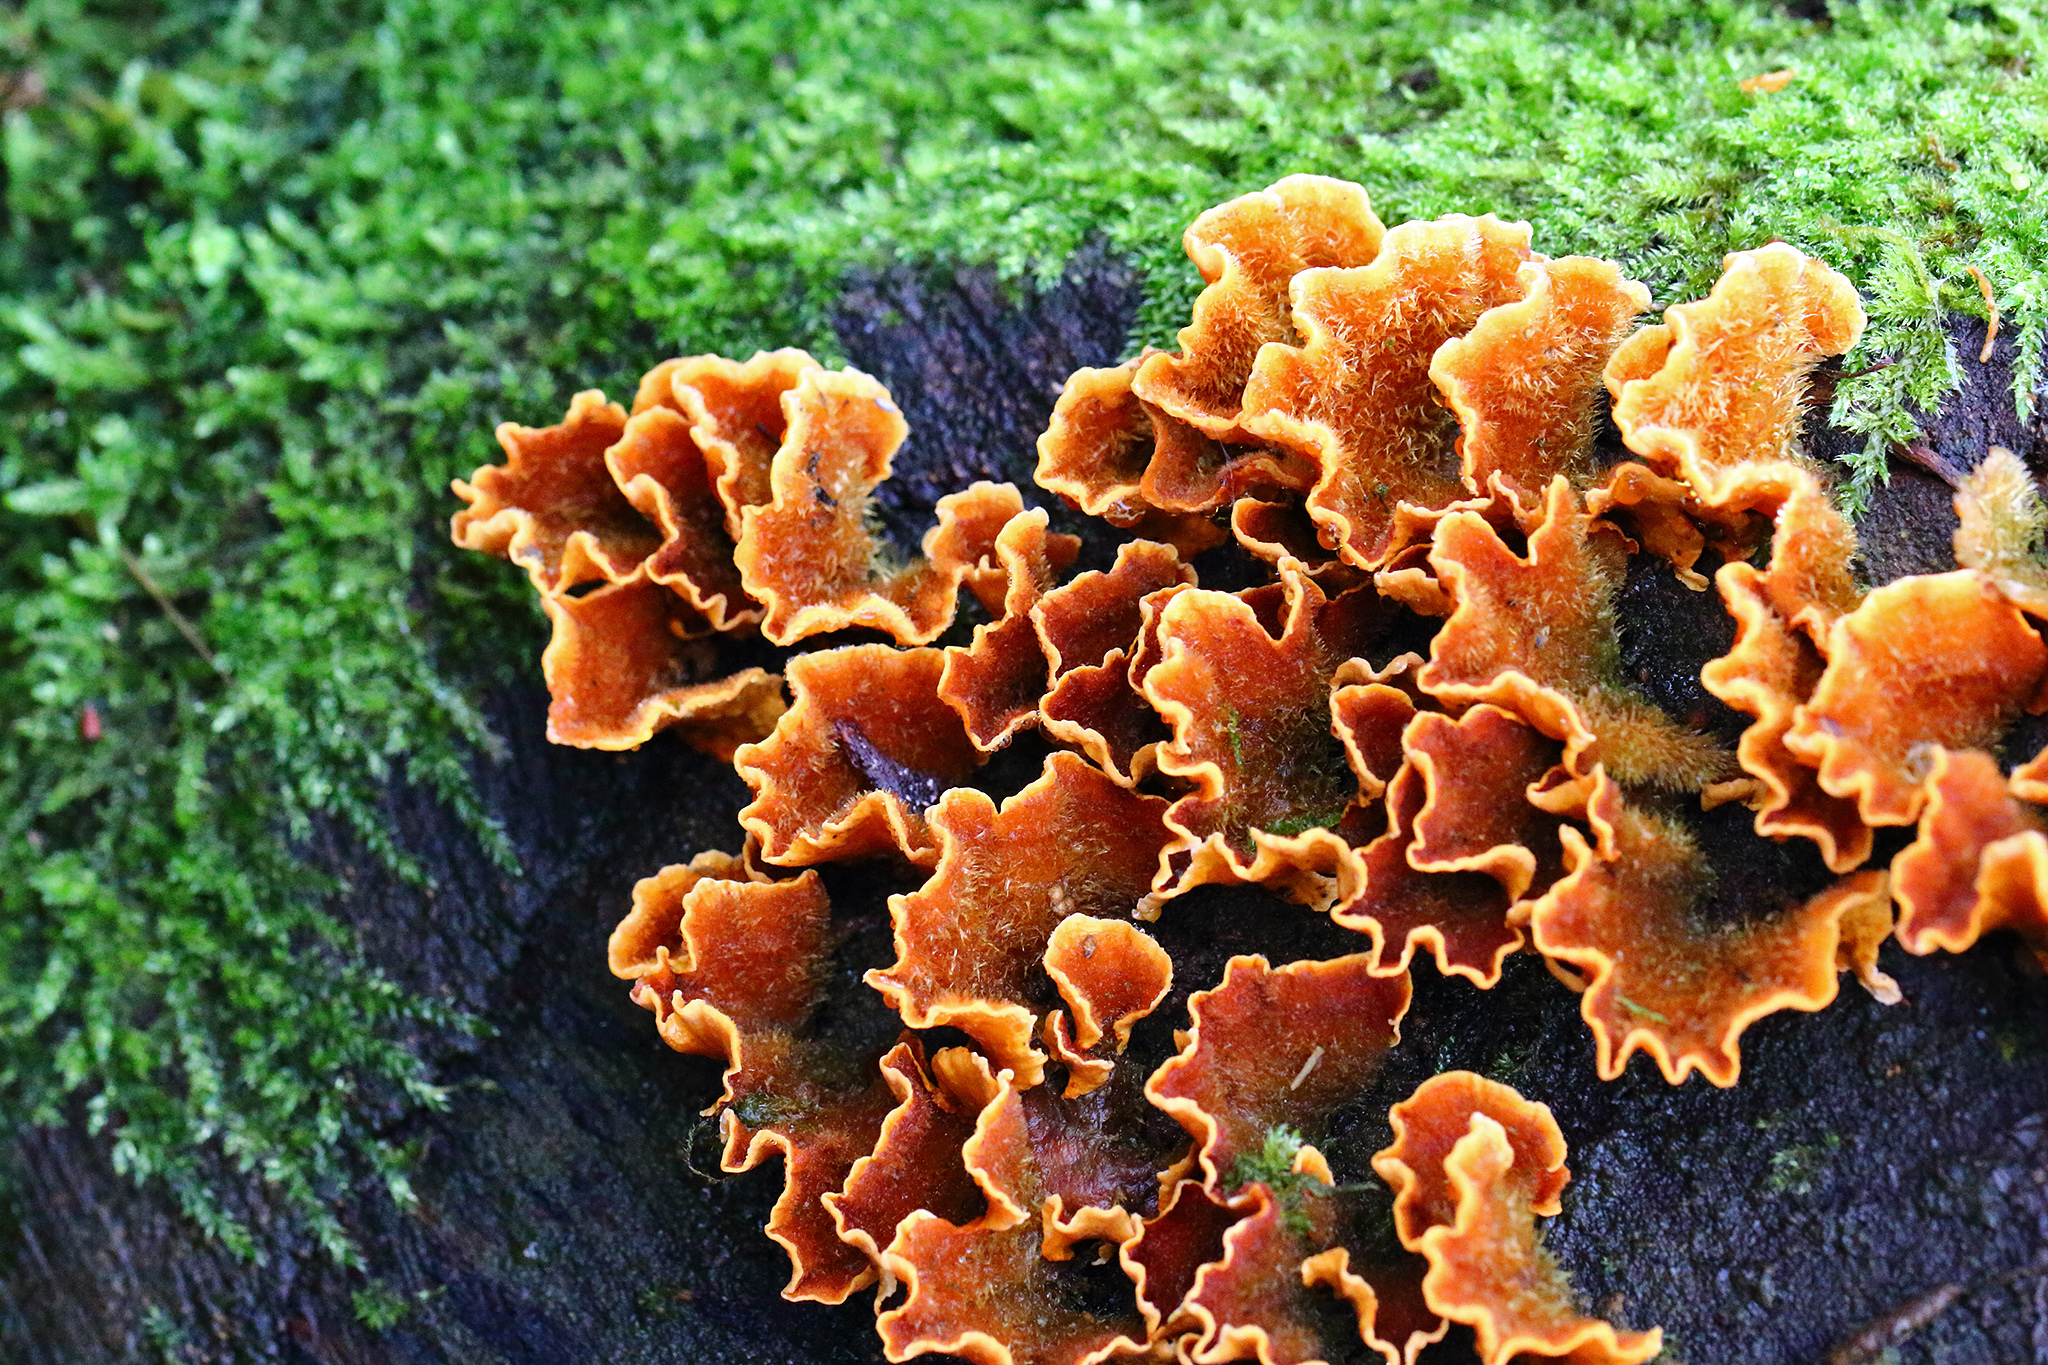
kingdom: Fungi
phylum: Basidiomycota
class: Agaricomycetes
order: Russulales
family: Stereaceae
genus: Stereum
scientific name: Stereum hirsutum
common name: Hairy curtain crust
